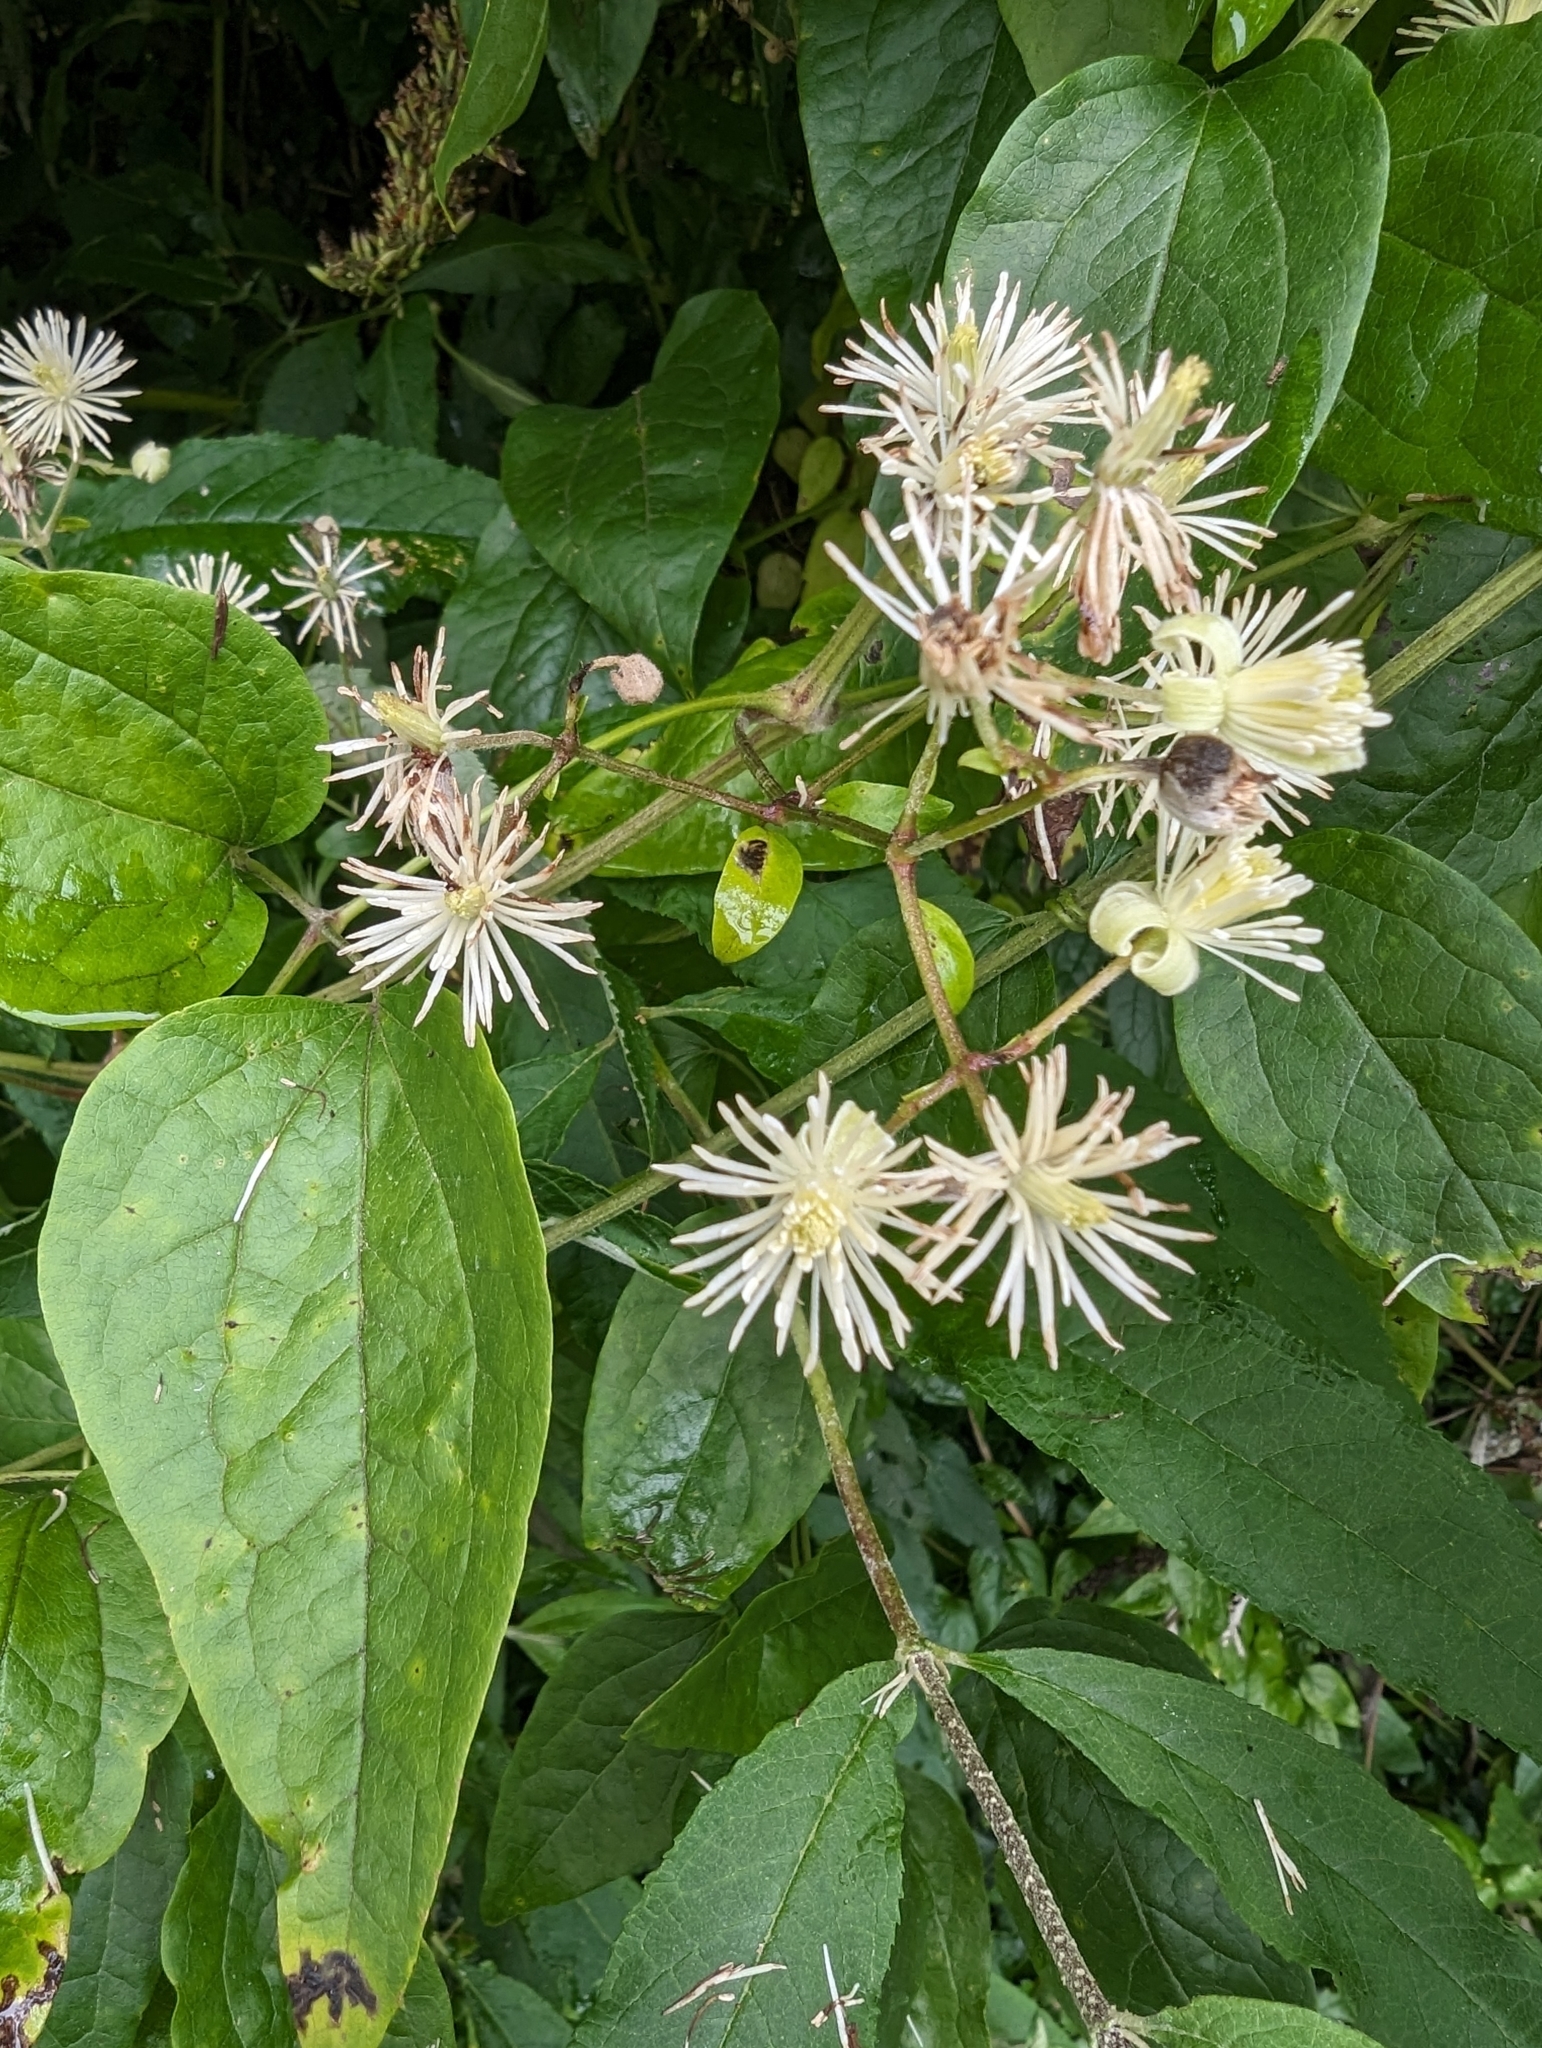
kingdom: Plantae
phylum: Tracheophyta
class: Magnoliopsida
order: Ranunculales
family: Ranunculaceae
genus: Clematis
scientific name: Clematis vitalba
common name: Evergreen clematis
